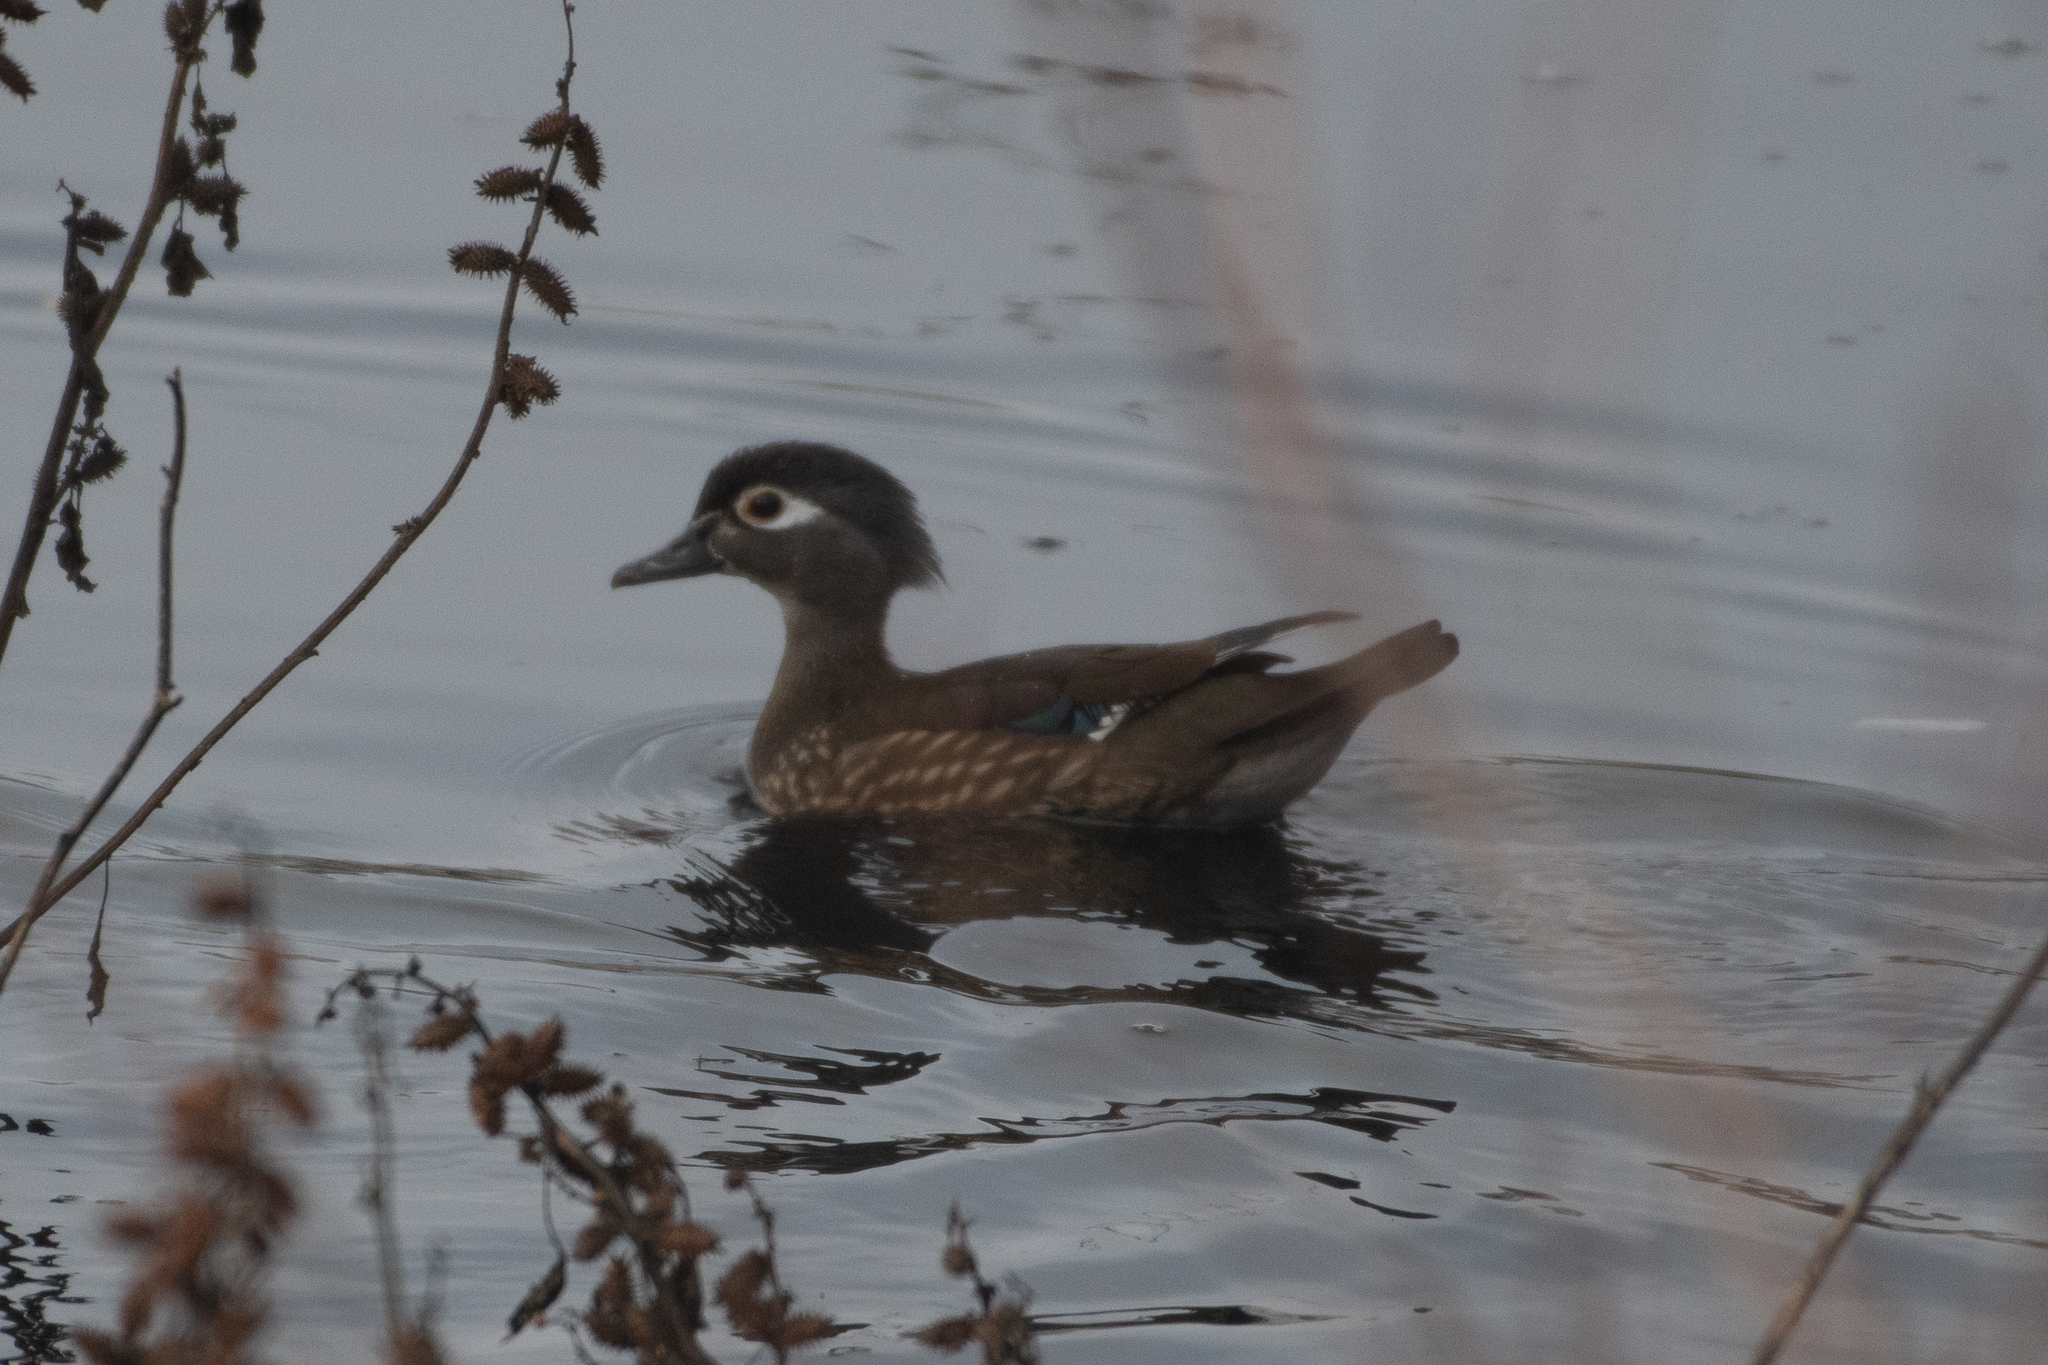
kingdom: Animalia
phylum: Chordata
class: Aves
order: Anseriformes
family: Anatidae
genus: Aix
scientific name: Aix sponsa
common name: Wood duck
